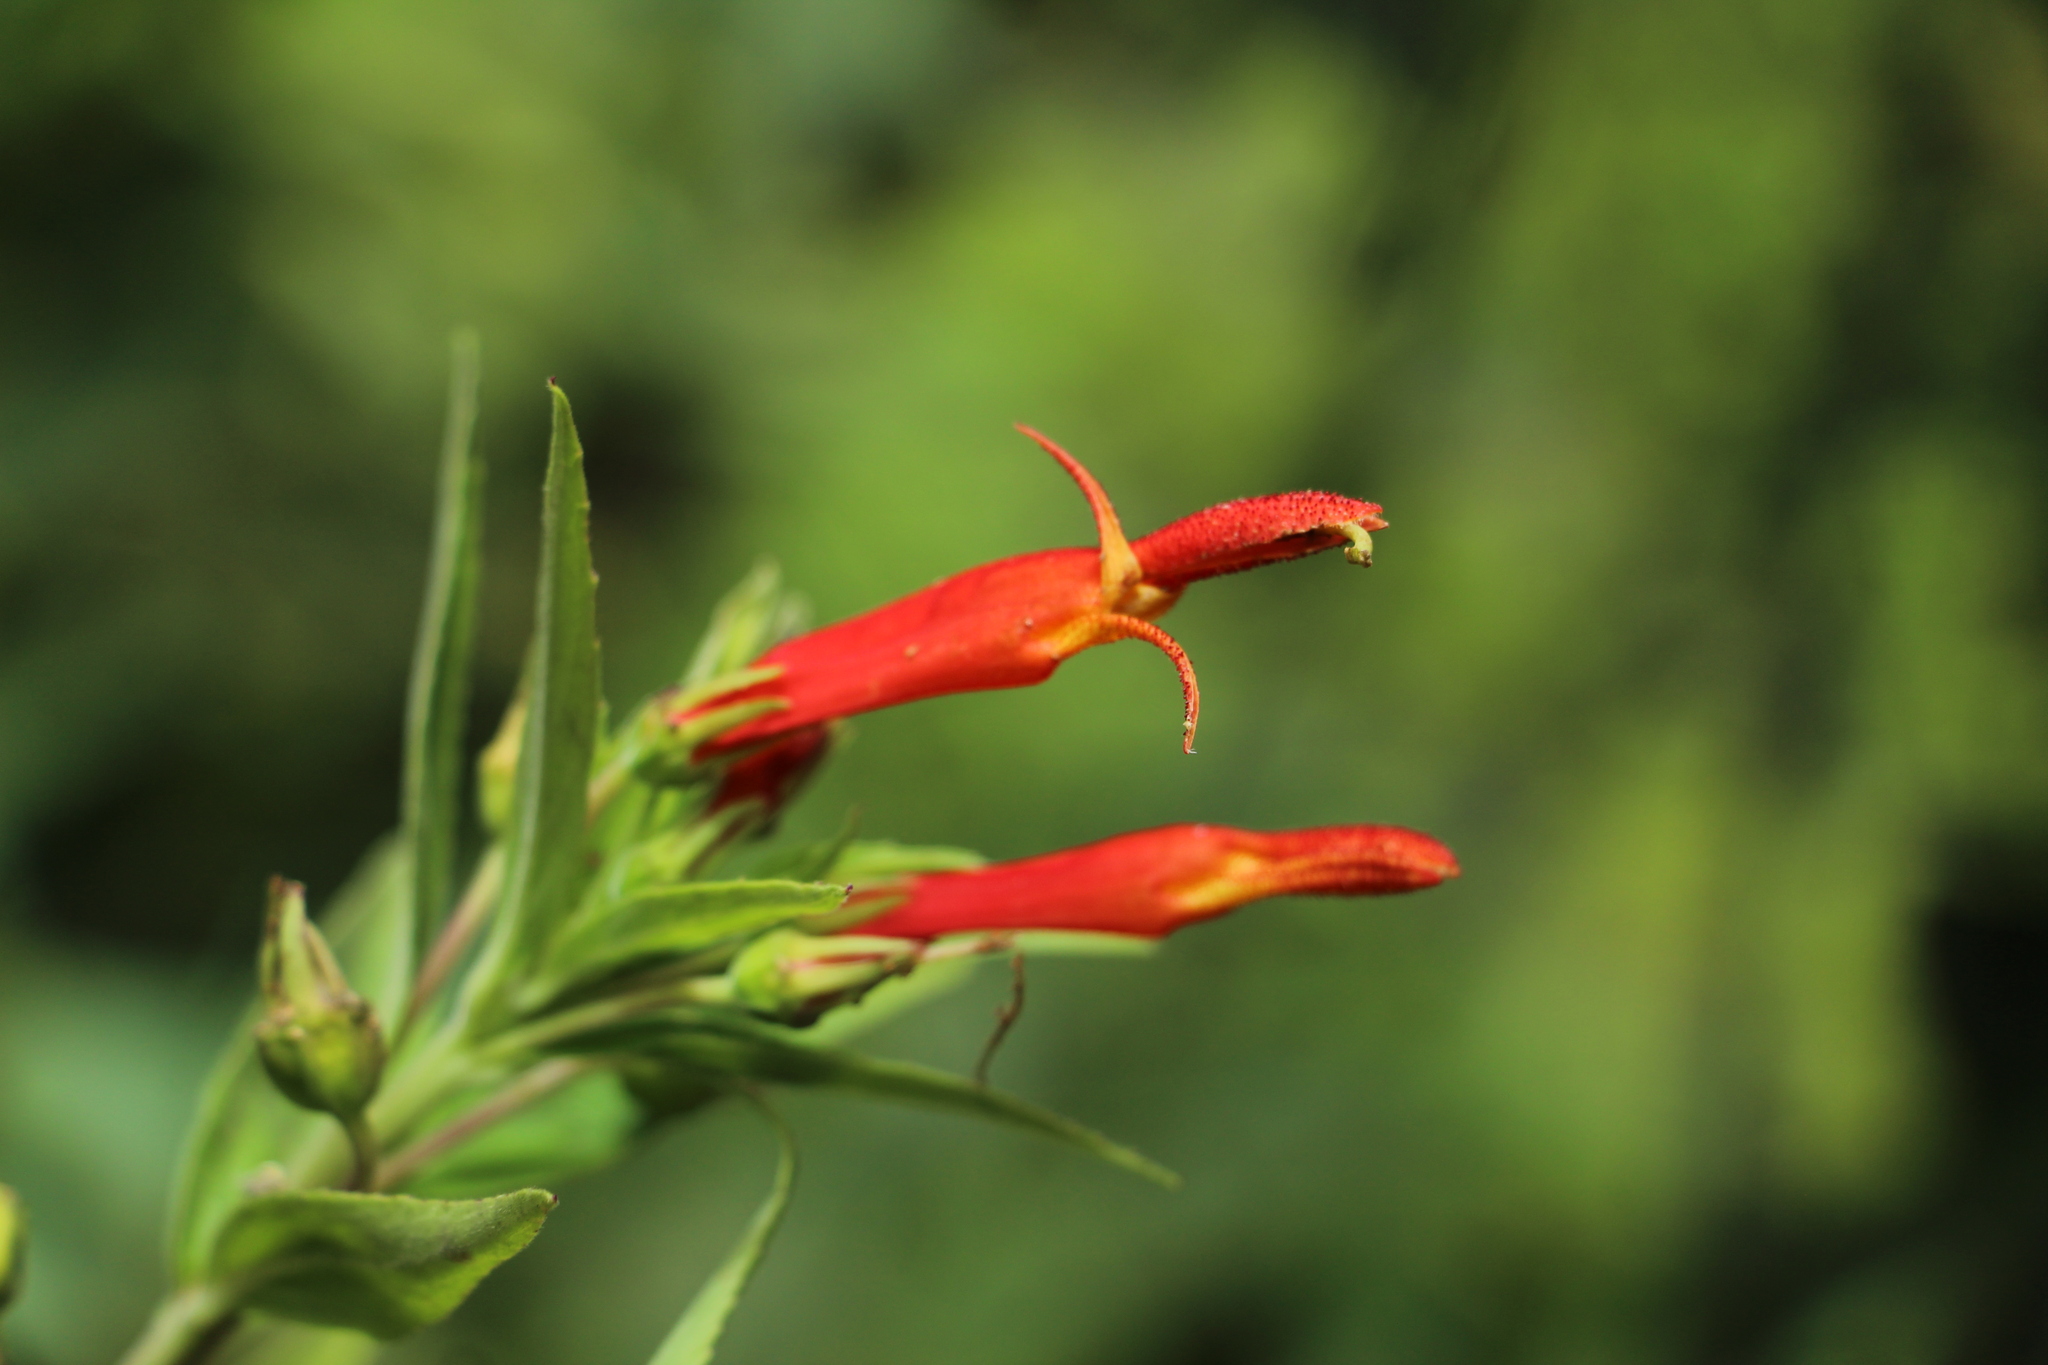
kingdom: Plantae
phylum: Tracheophyta
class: Magnoliopsida
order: Asterales
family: Campanulaceae
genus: Siphocampylus
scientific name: Siphocampylus polyphyllus
